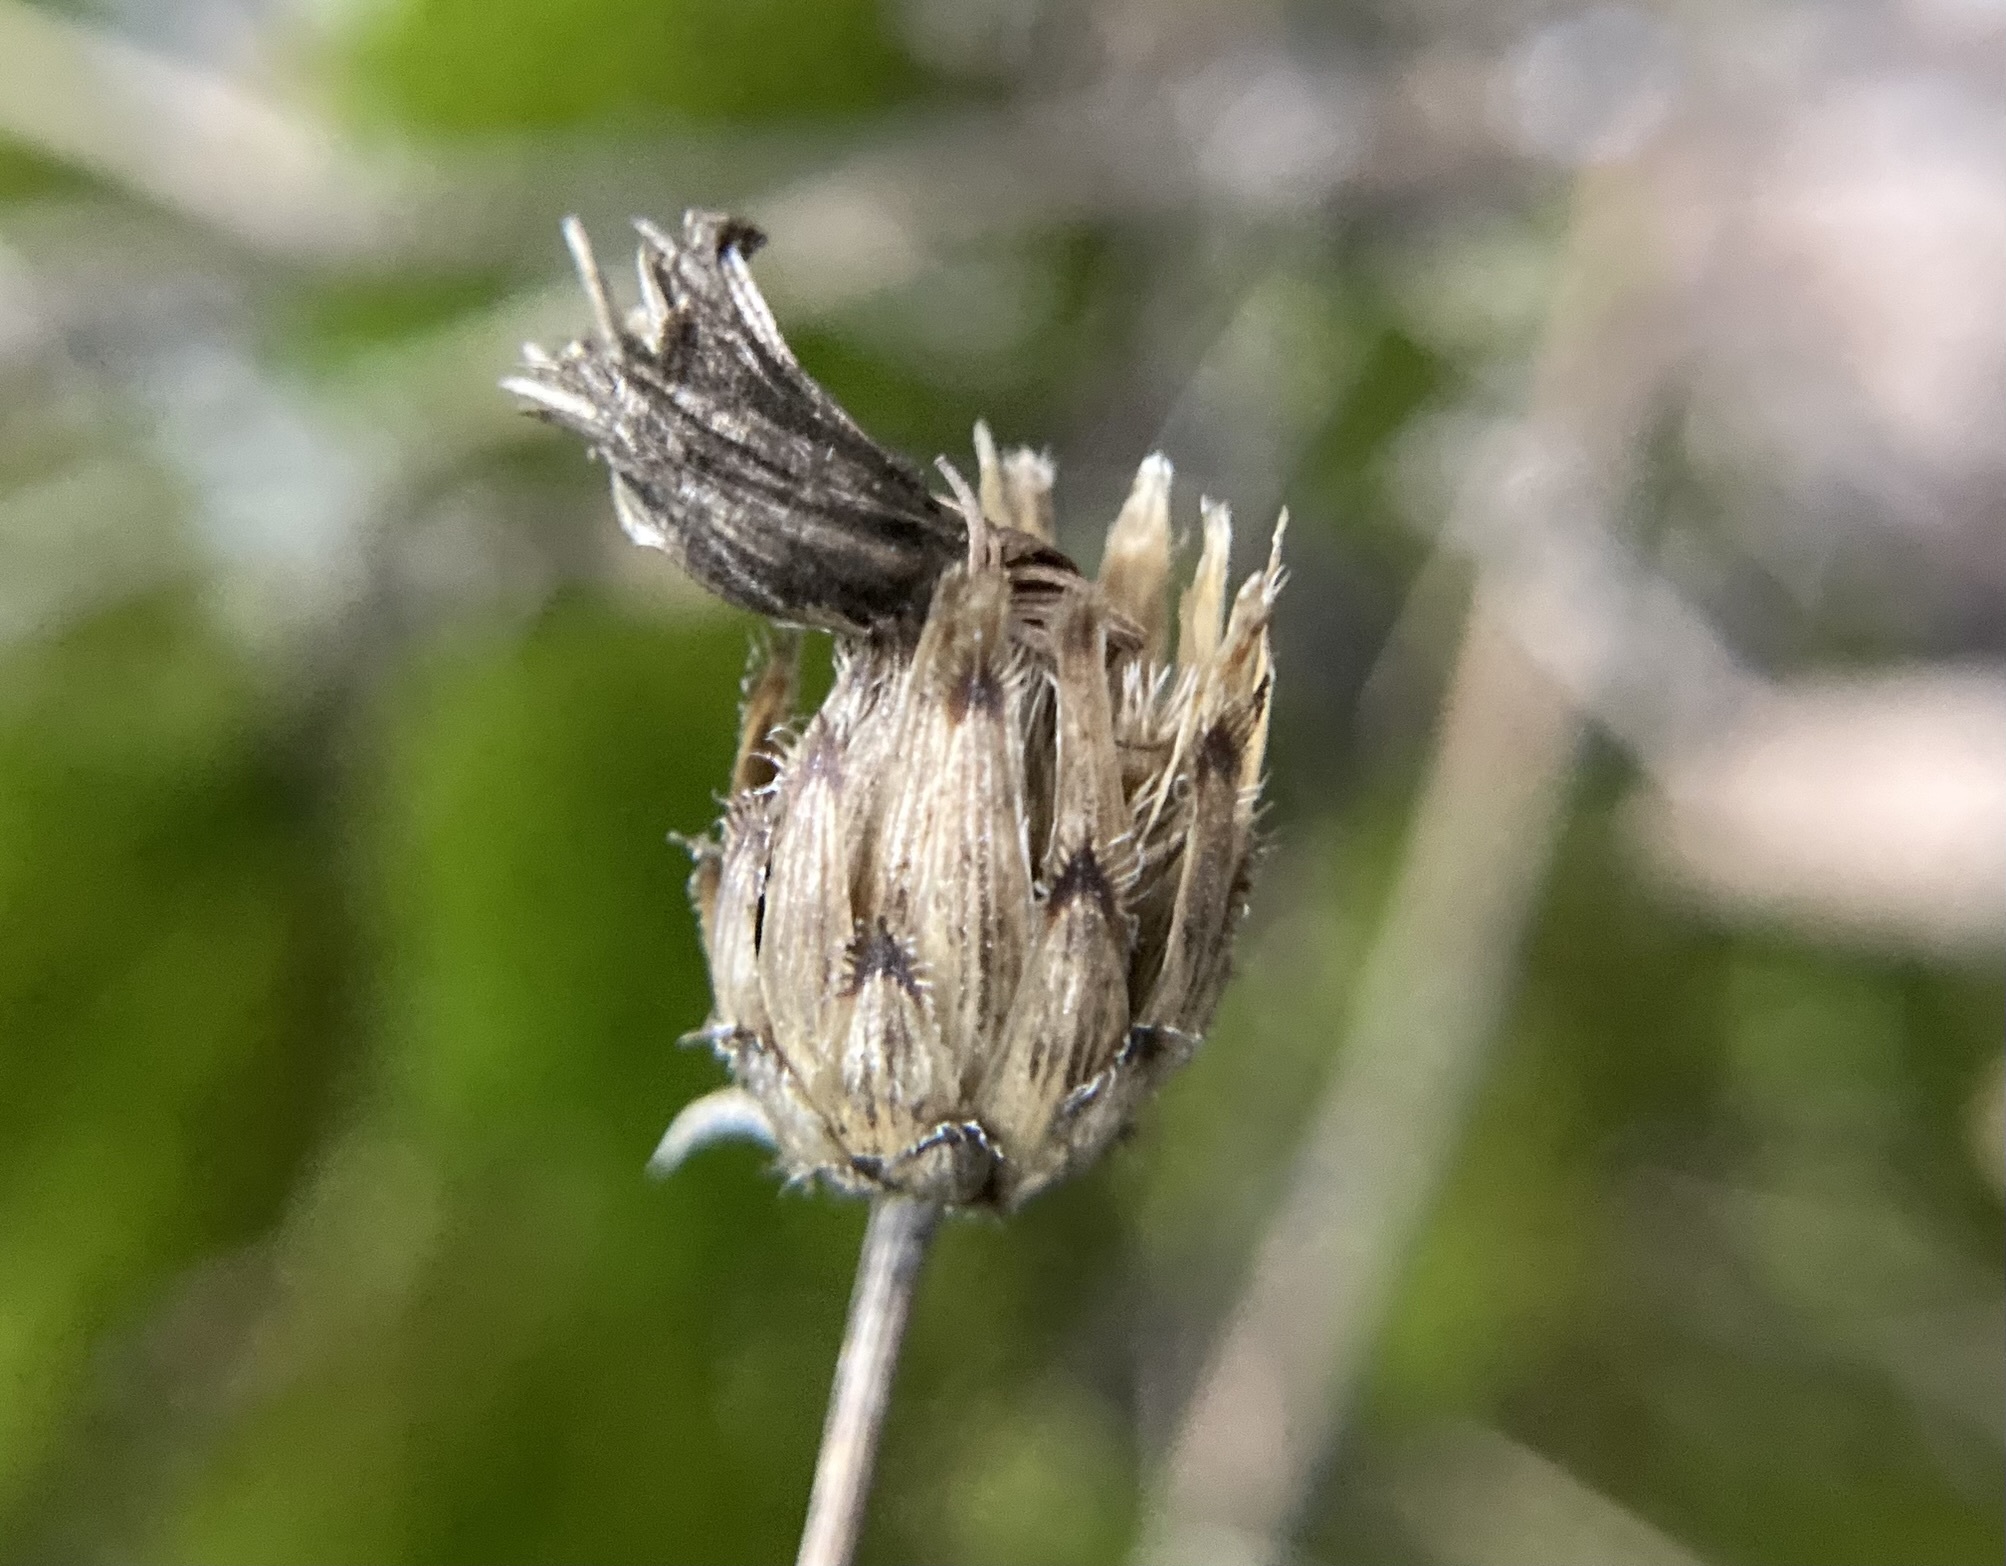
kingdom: Plantae
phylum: Tracheophyta
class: Magnoliopsida
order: Asterales
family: Asteraceae
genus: Centaurea
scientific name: Centaurea stoebe
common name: Spotted knapweed
